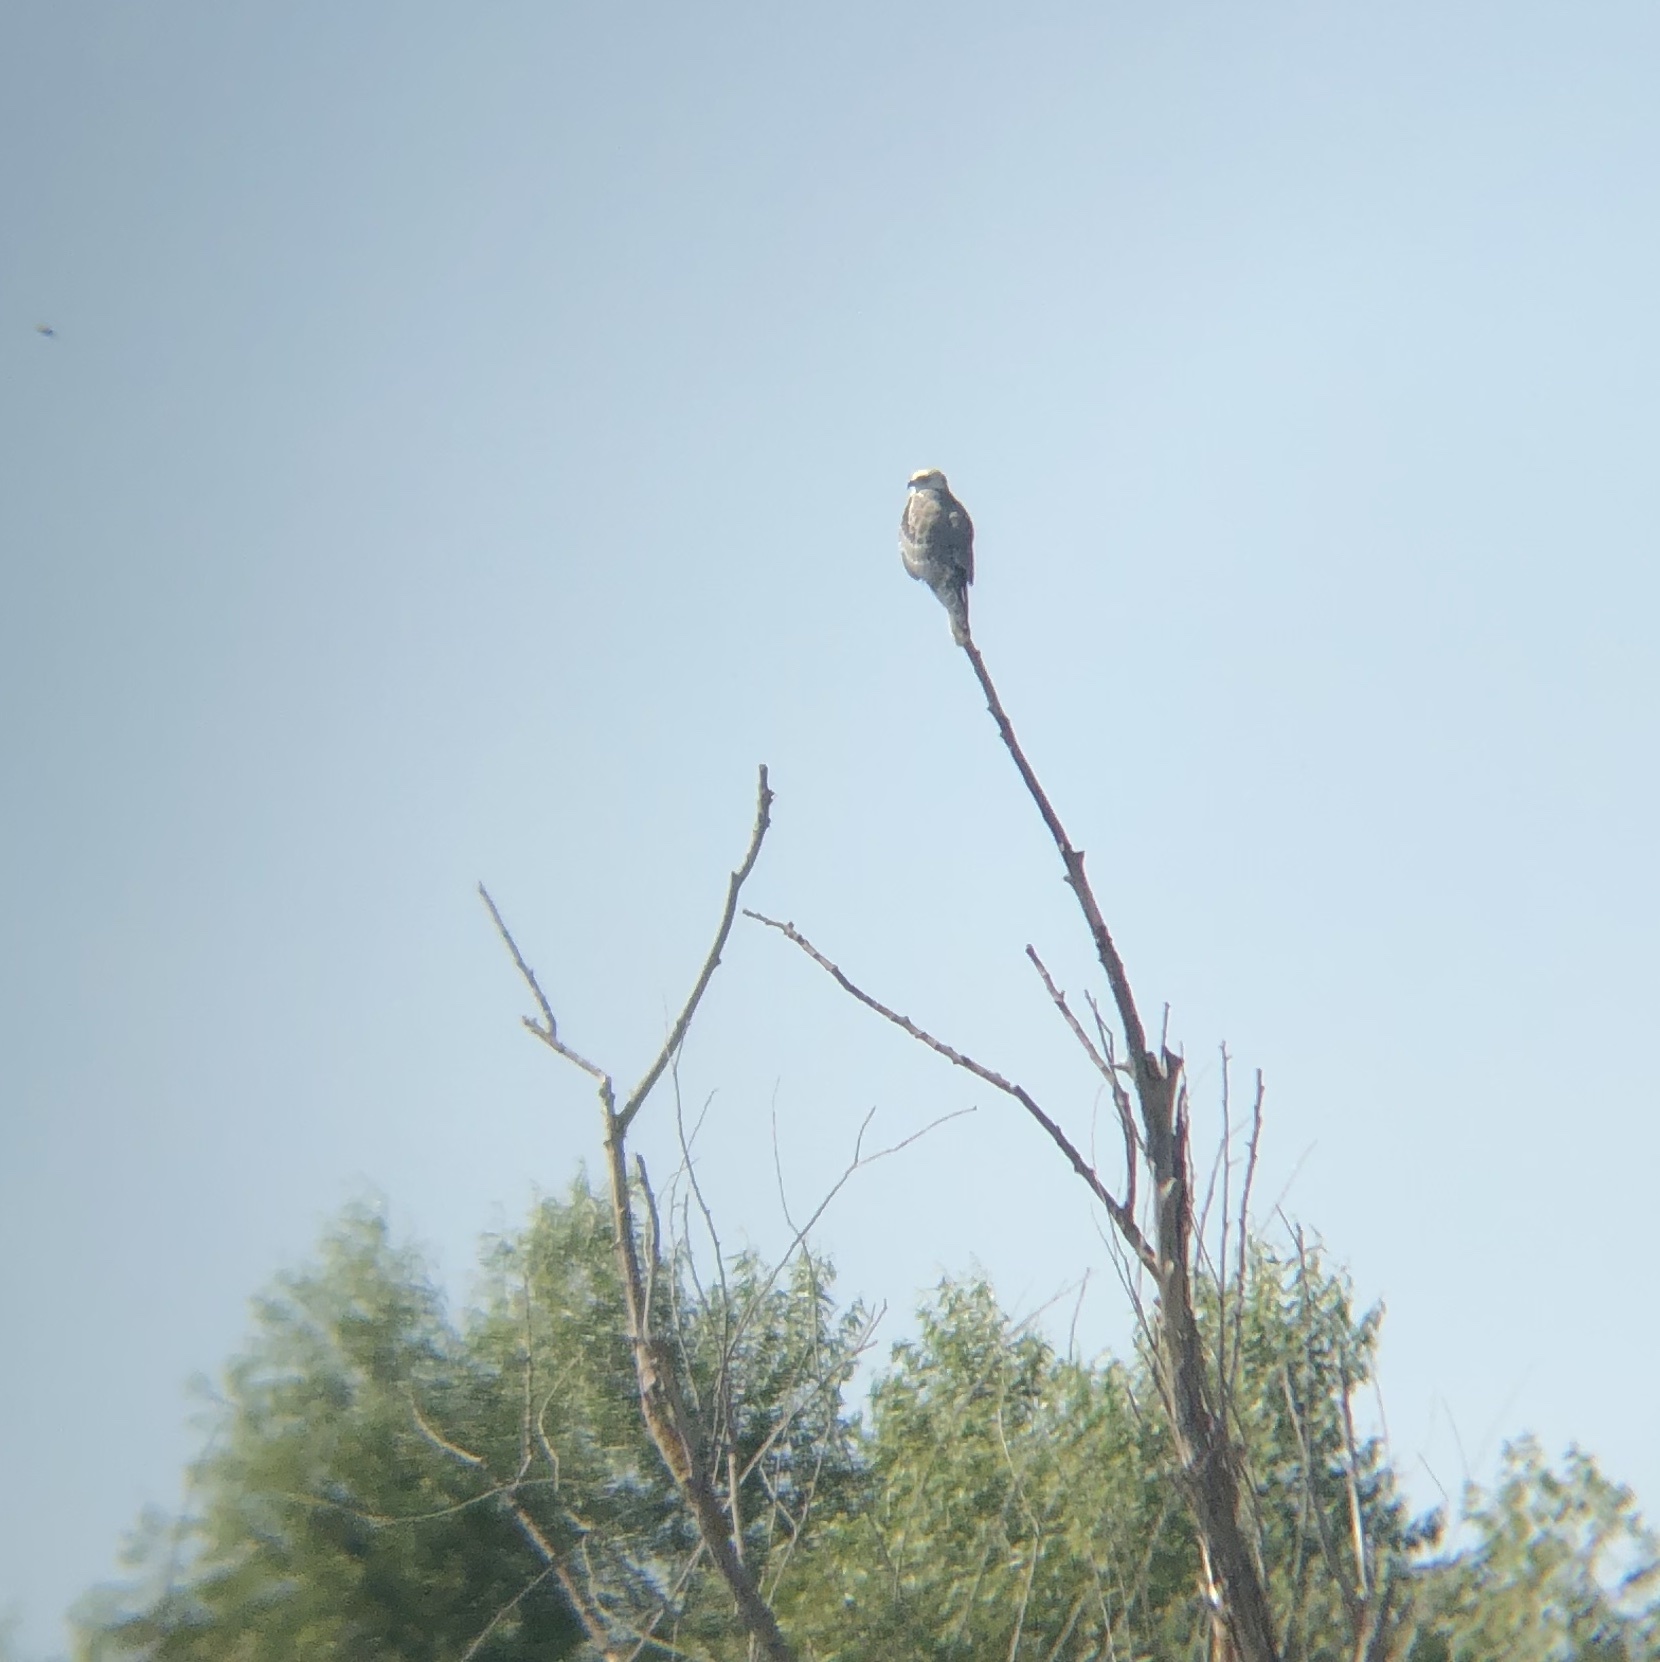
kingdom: Animalia
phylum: Chordata
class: Aves
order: Accipitriformes
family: Accipitridae
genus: Elanus
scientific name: Elanus leucurus
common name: White-tailed kite
